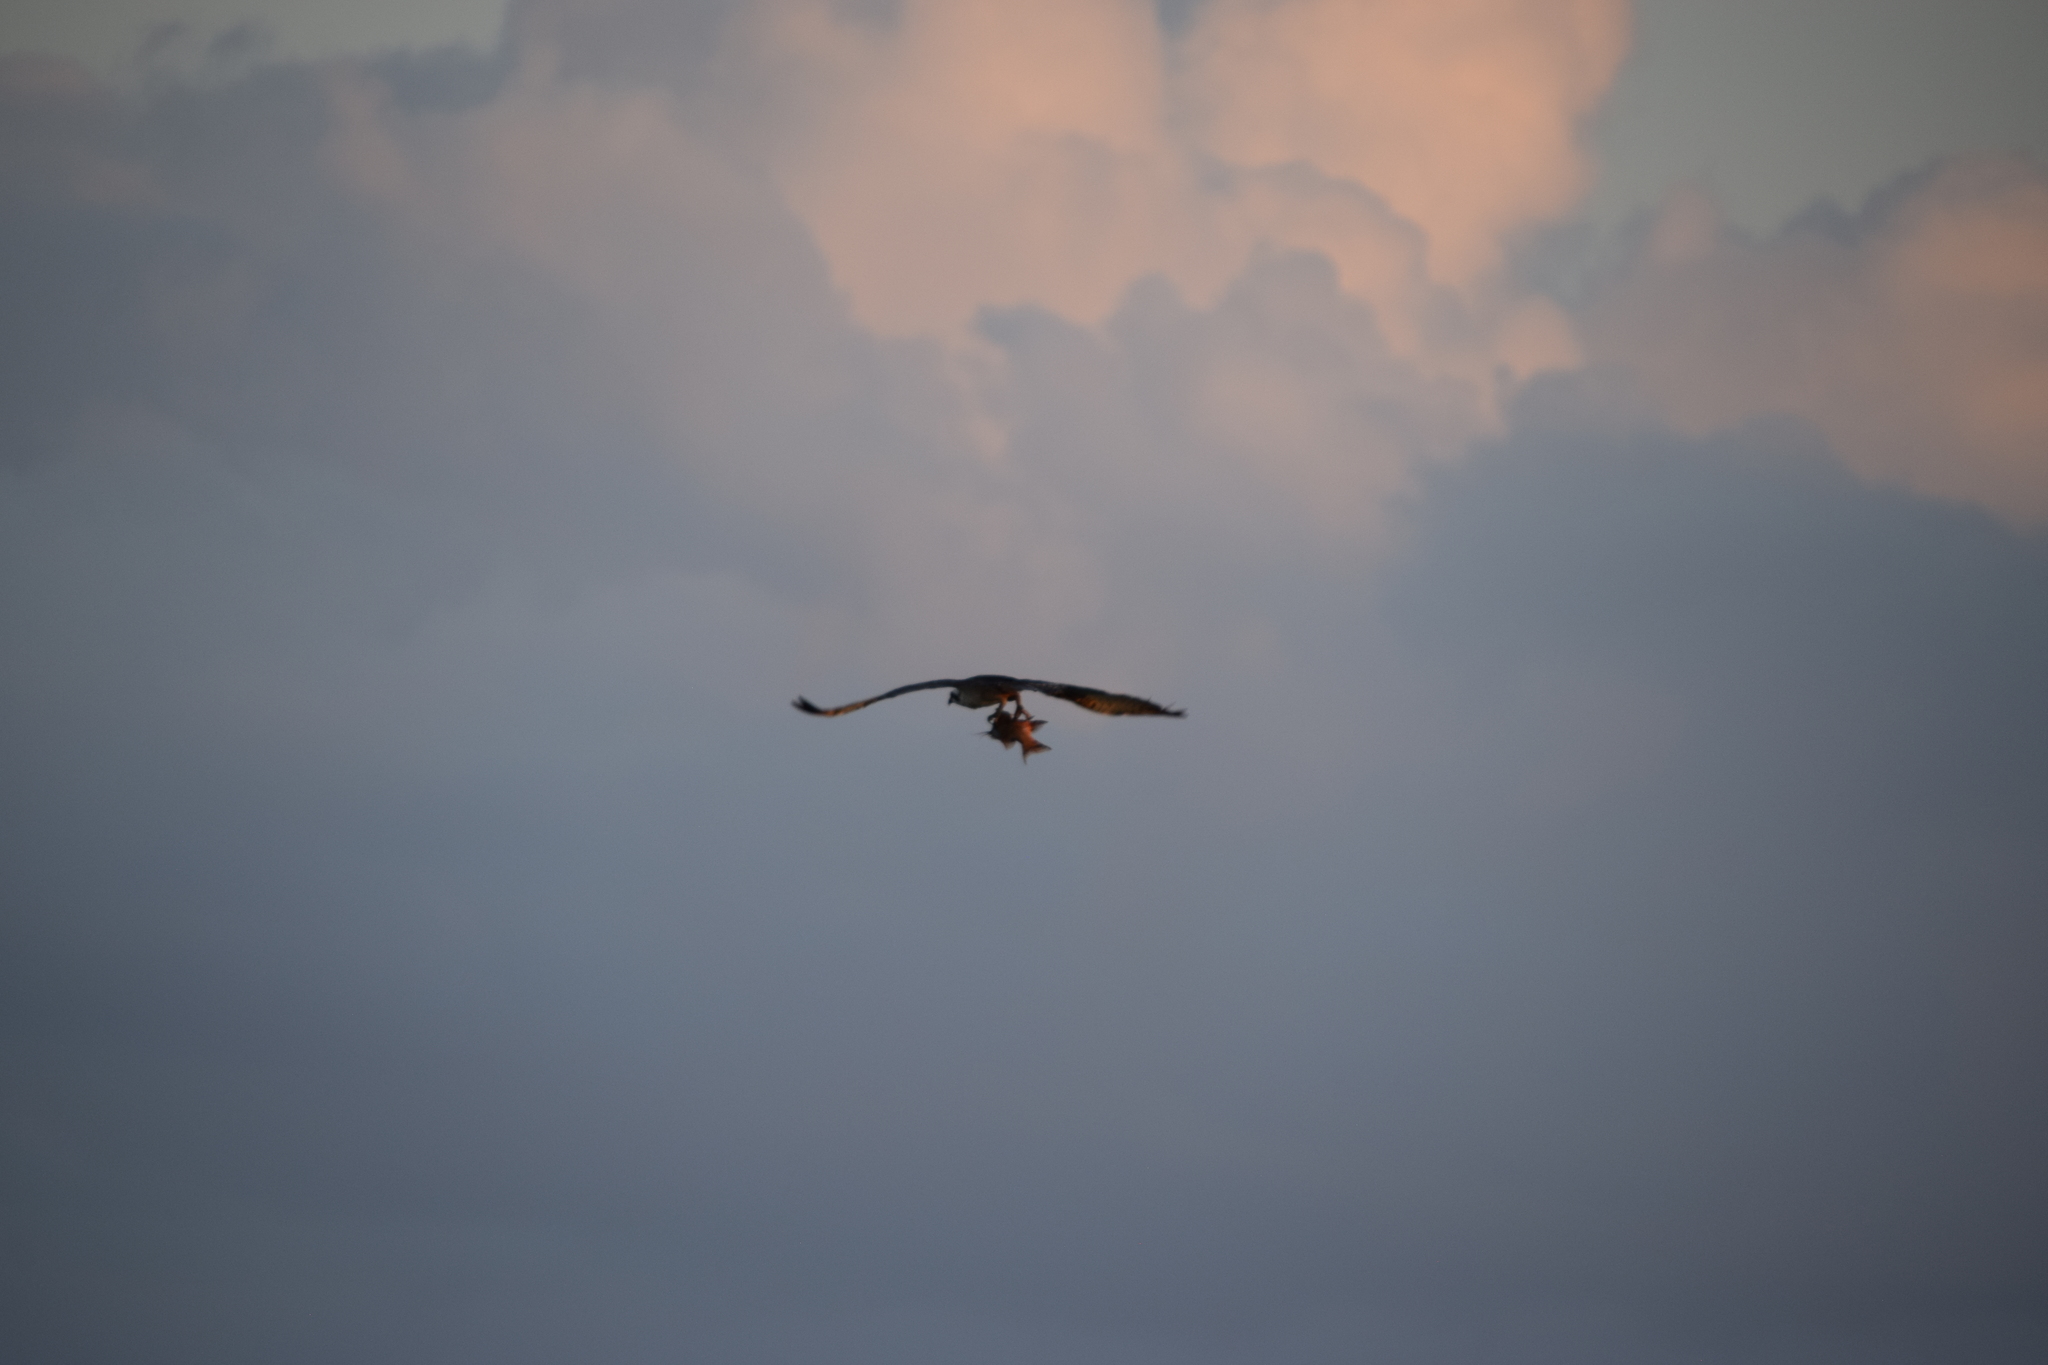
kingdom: Animalia
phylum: Chordata
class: Aves
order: Accipitriformes
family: Pandionidae
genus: Pandion
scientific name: Pandion haliaetus
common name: Osprey
